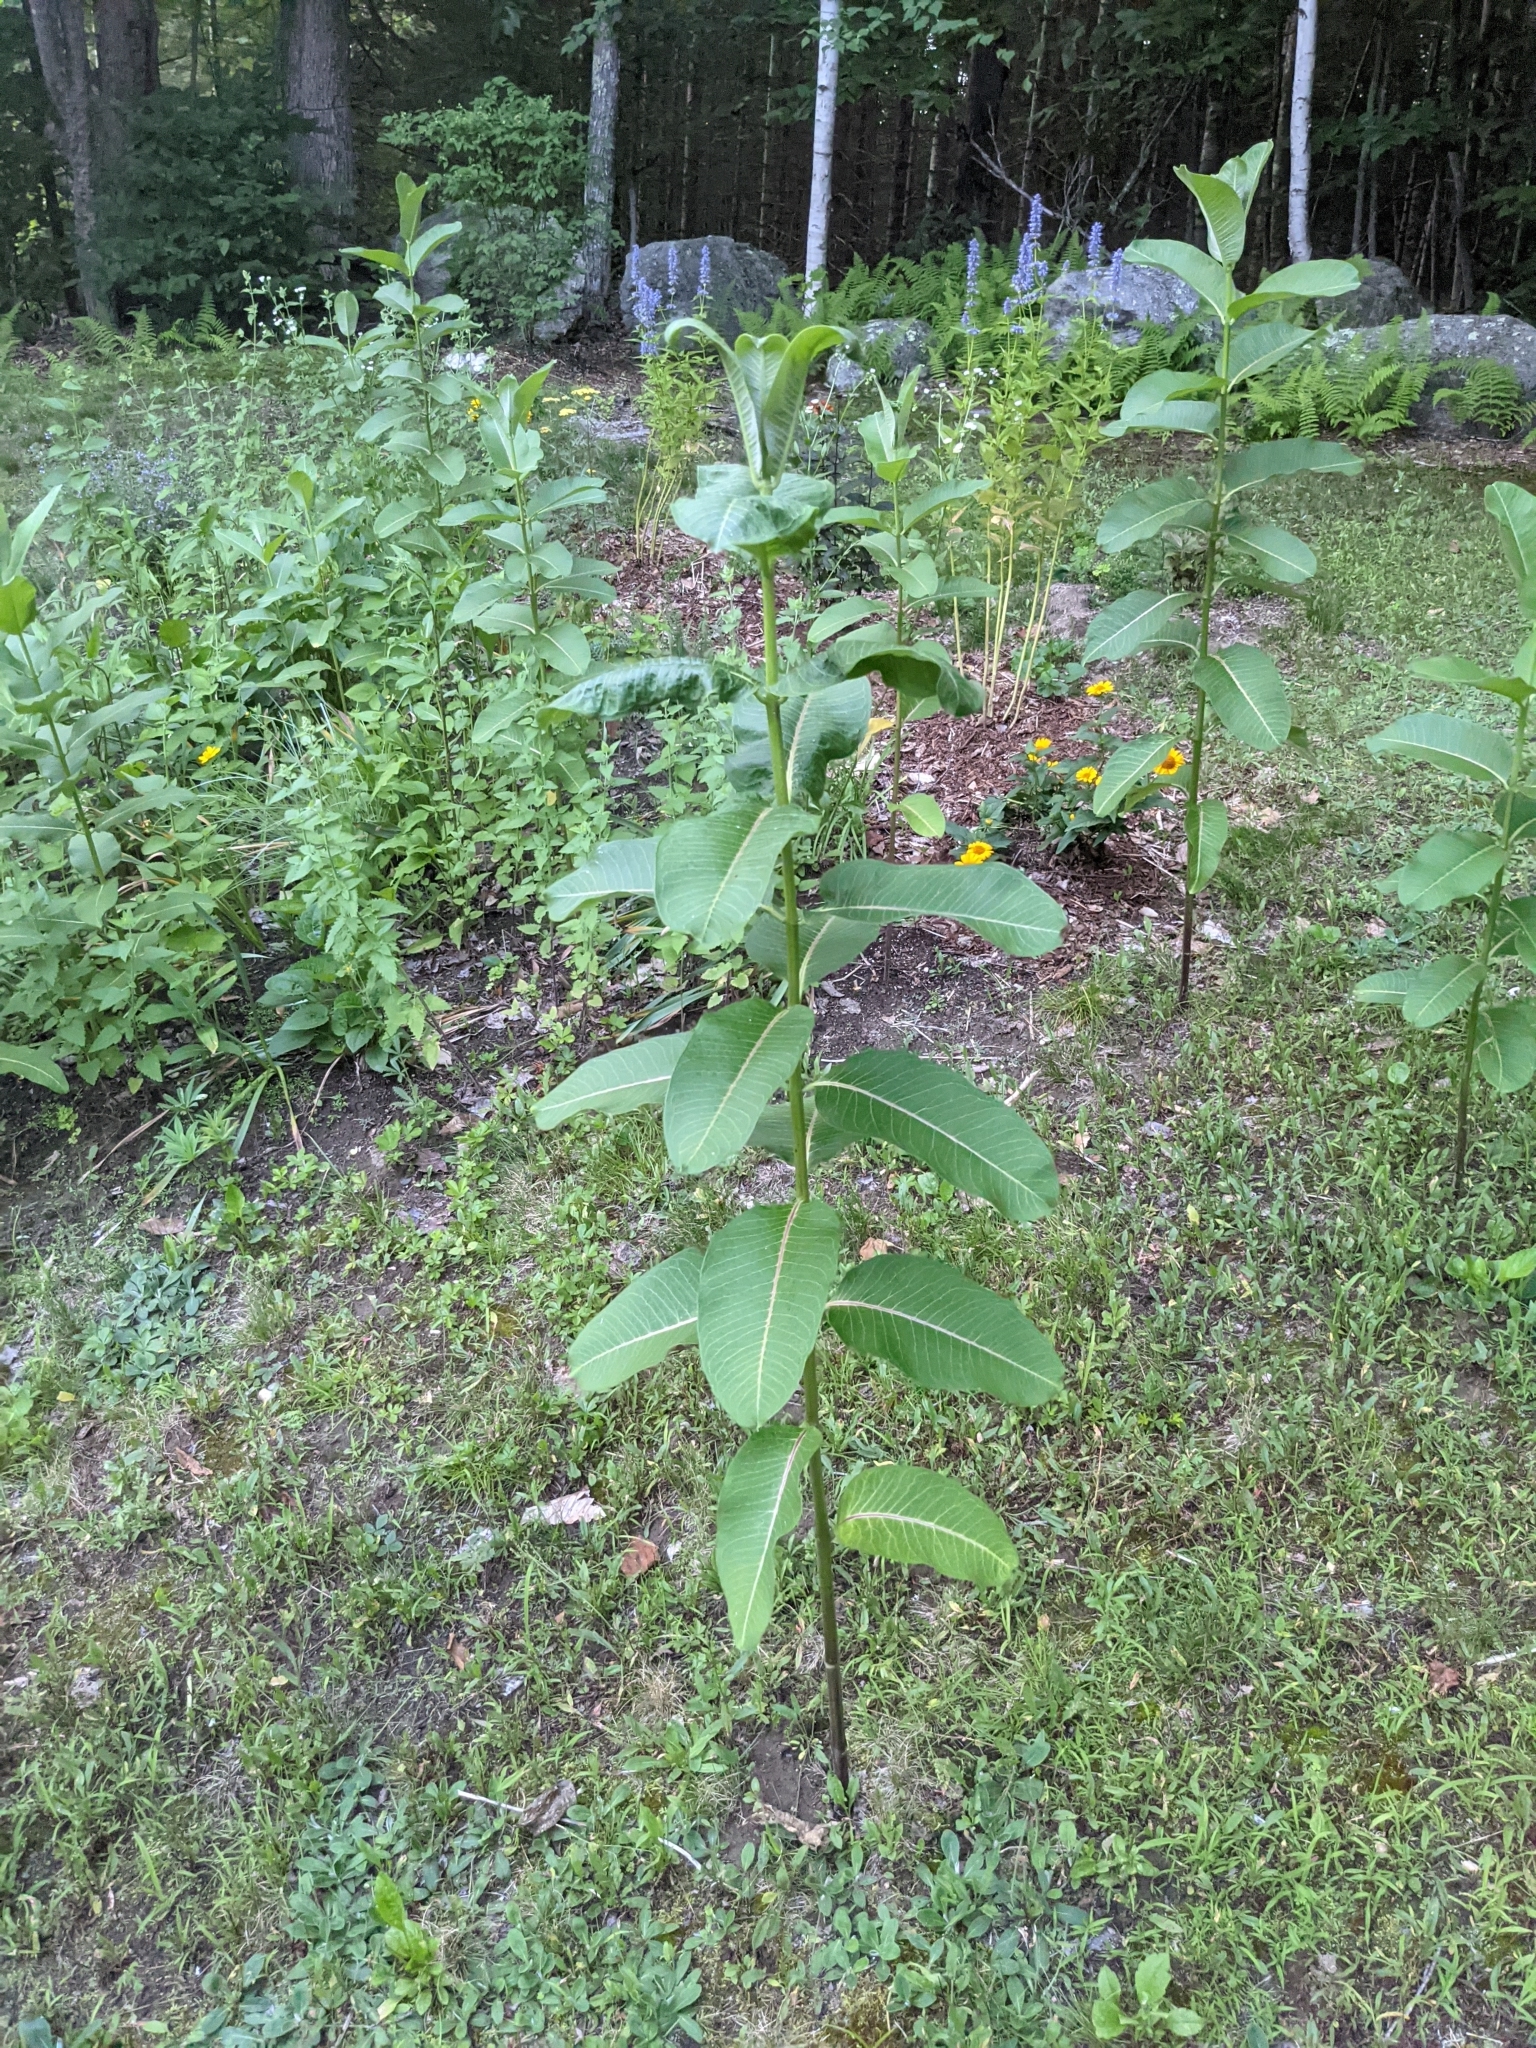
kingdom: Plantae
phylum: Tracheophyta
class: Magnoliopsida
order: Gentianales
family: Apocynaceae
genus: Asclepias
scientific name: Asclepias syriaca
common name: Common milkweed
